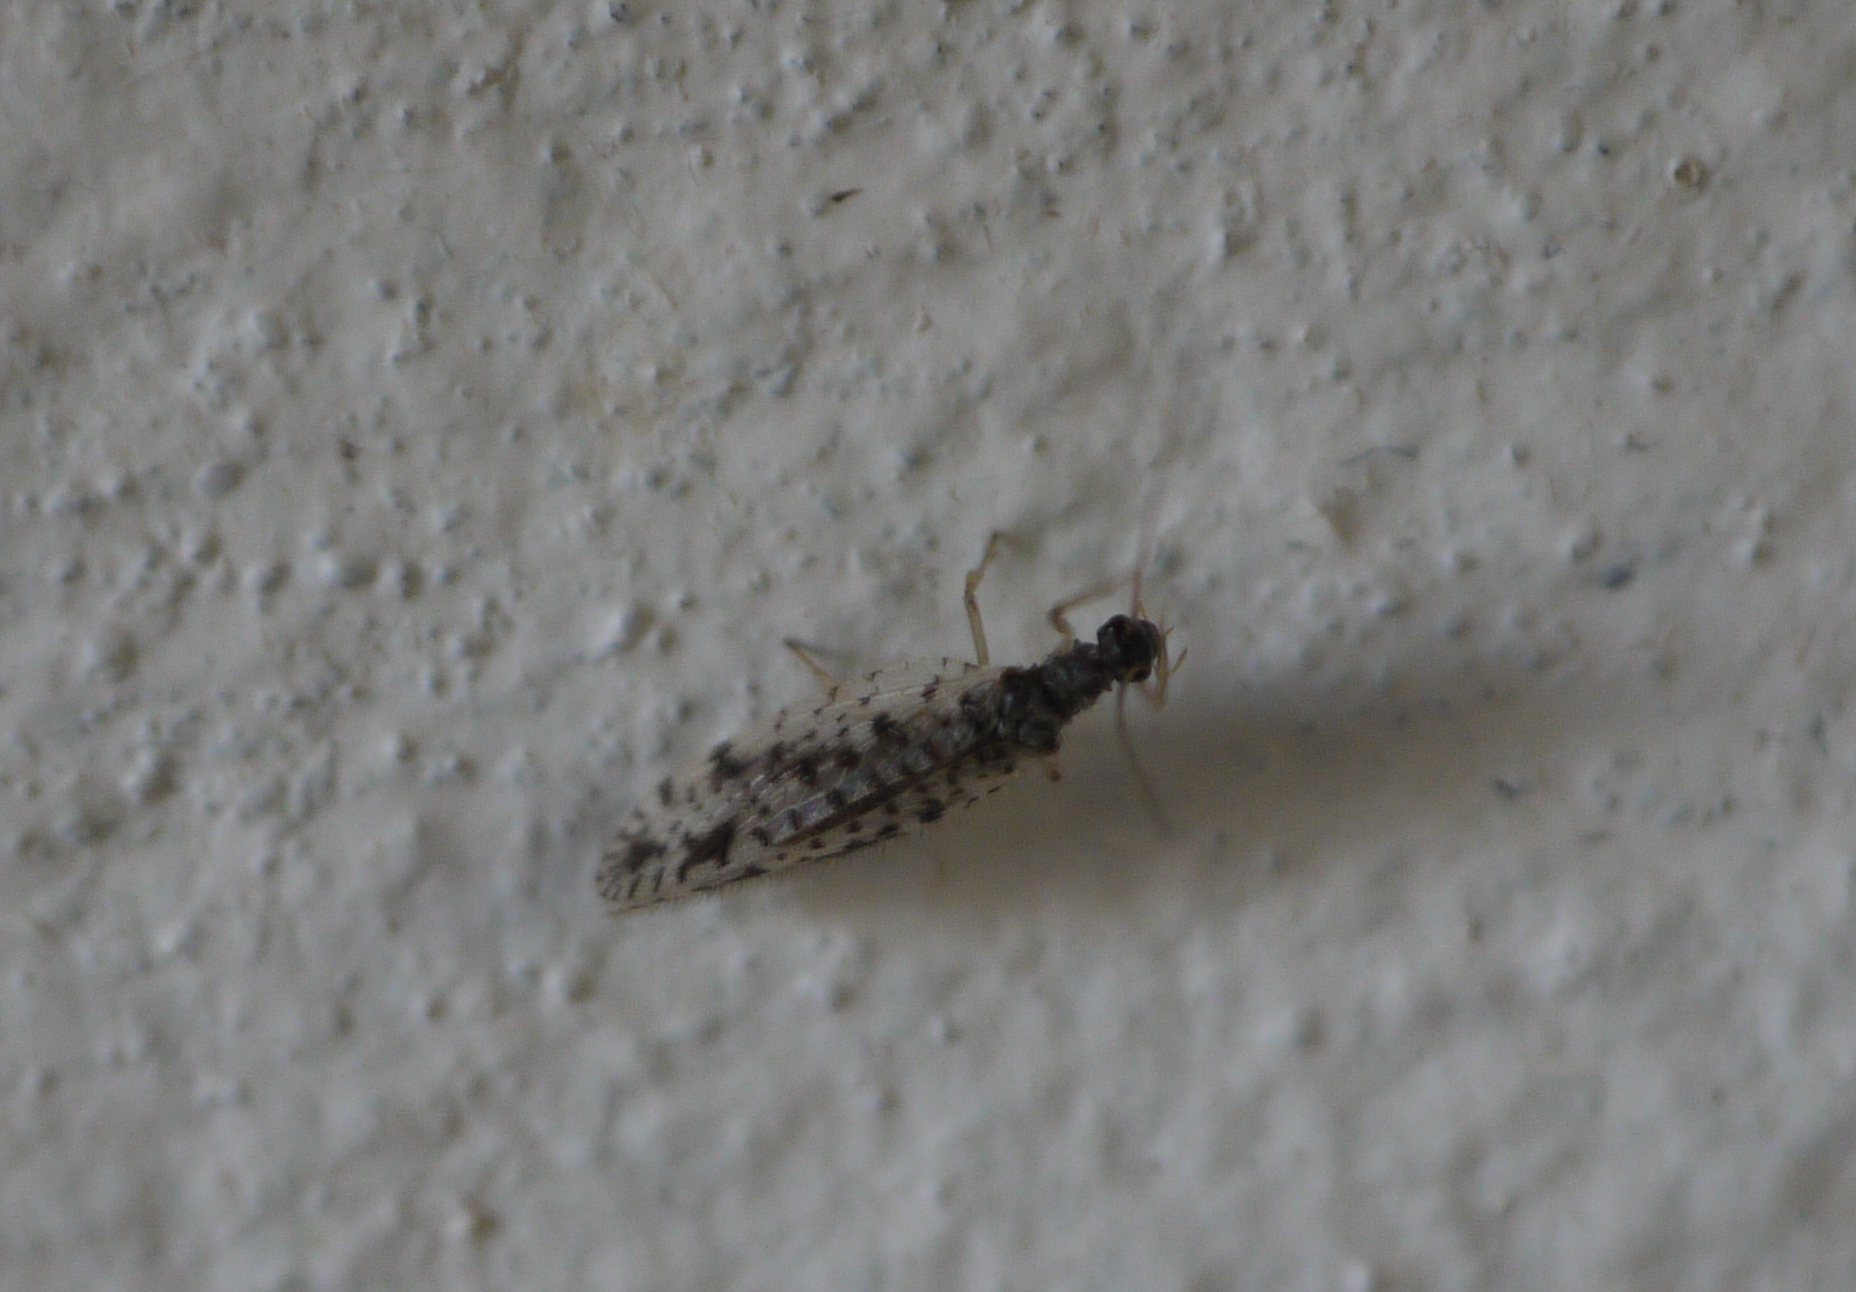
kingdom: Animalia
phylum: Arthropoda
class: Insecta
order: Neuroptera
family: Hemerobiidae
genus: Micromus
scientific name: Micromus variegatus
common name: Brown lacewing
